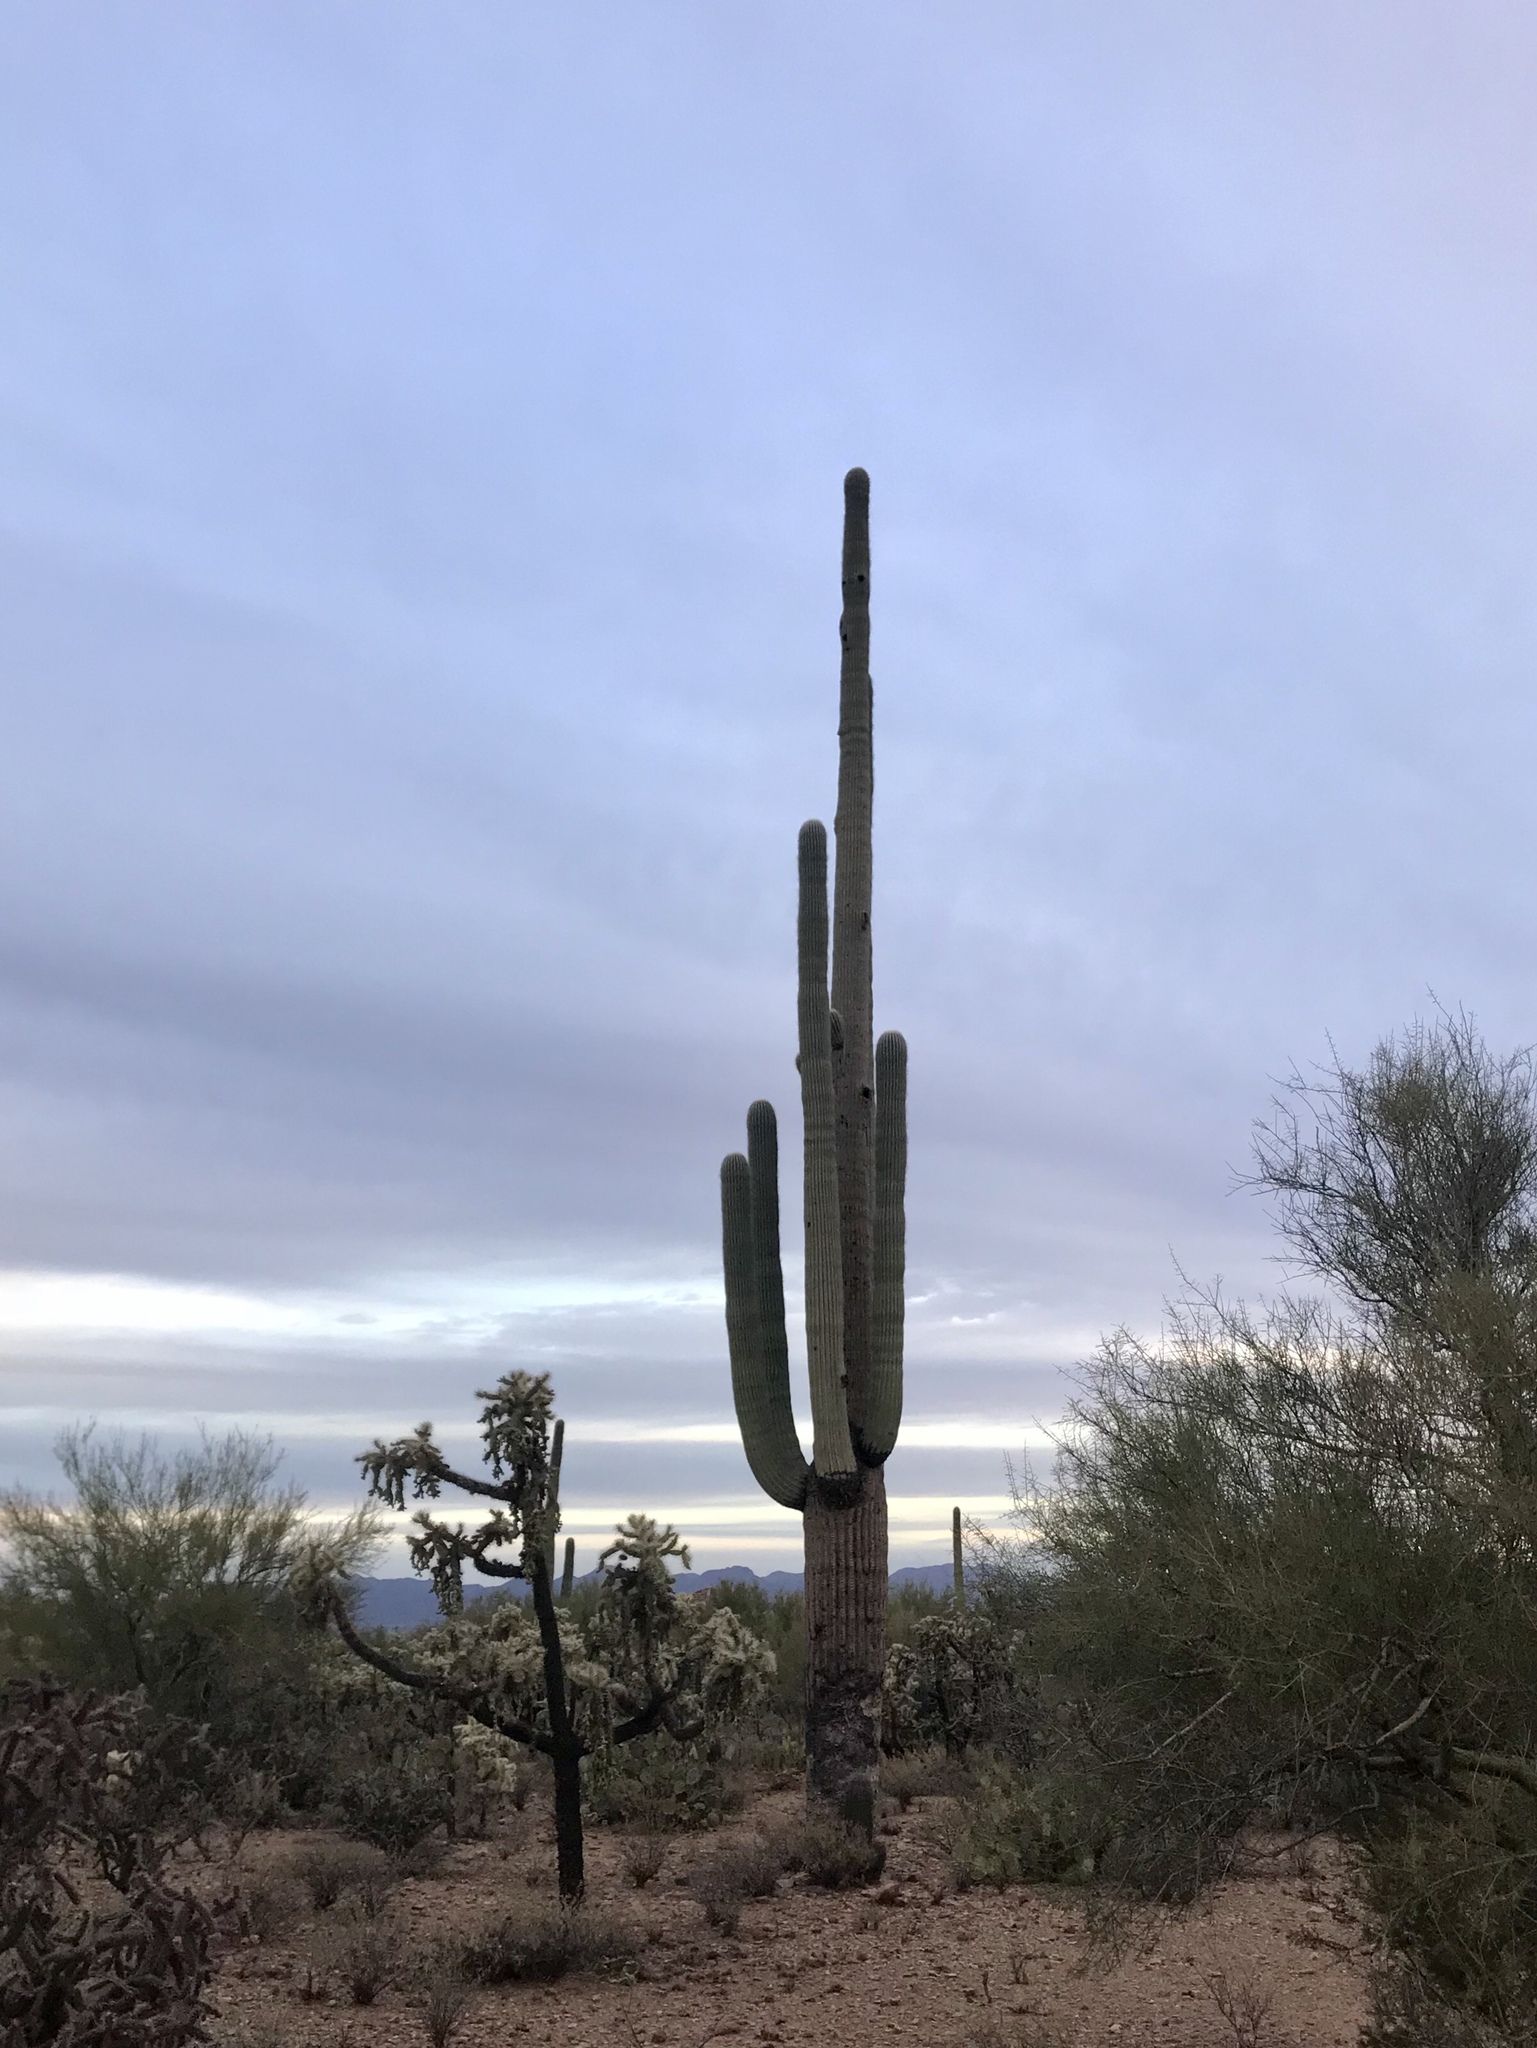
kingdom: Plantae
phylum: Tracheophyta
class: Magnoliopsida
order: Caryophyllales
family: Cactaceae
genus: Carnegiea
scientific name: Carnegiea gigantea
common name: Saguaro
